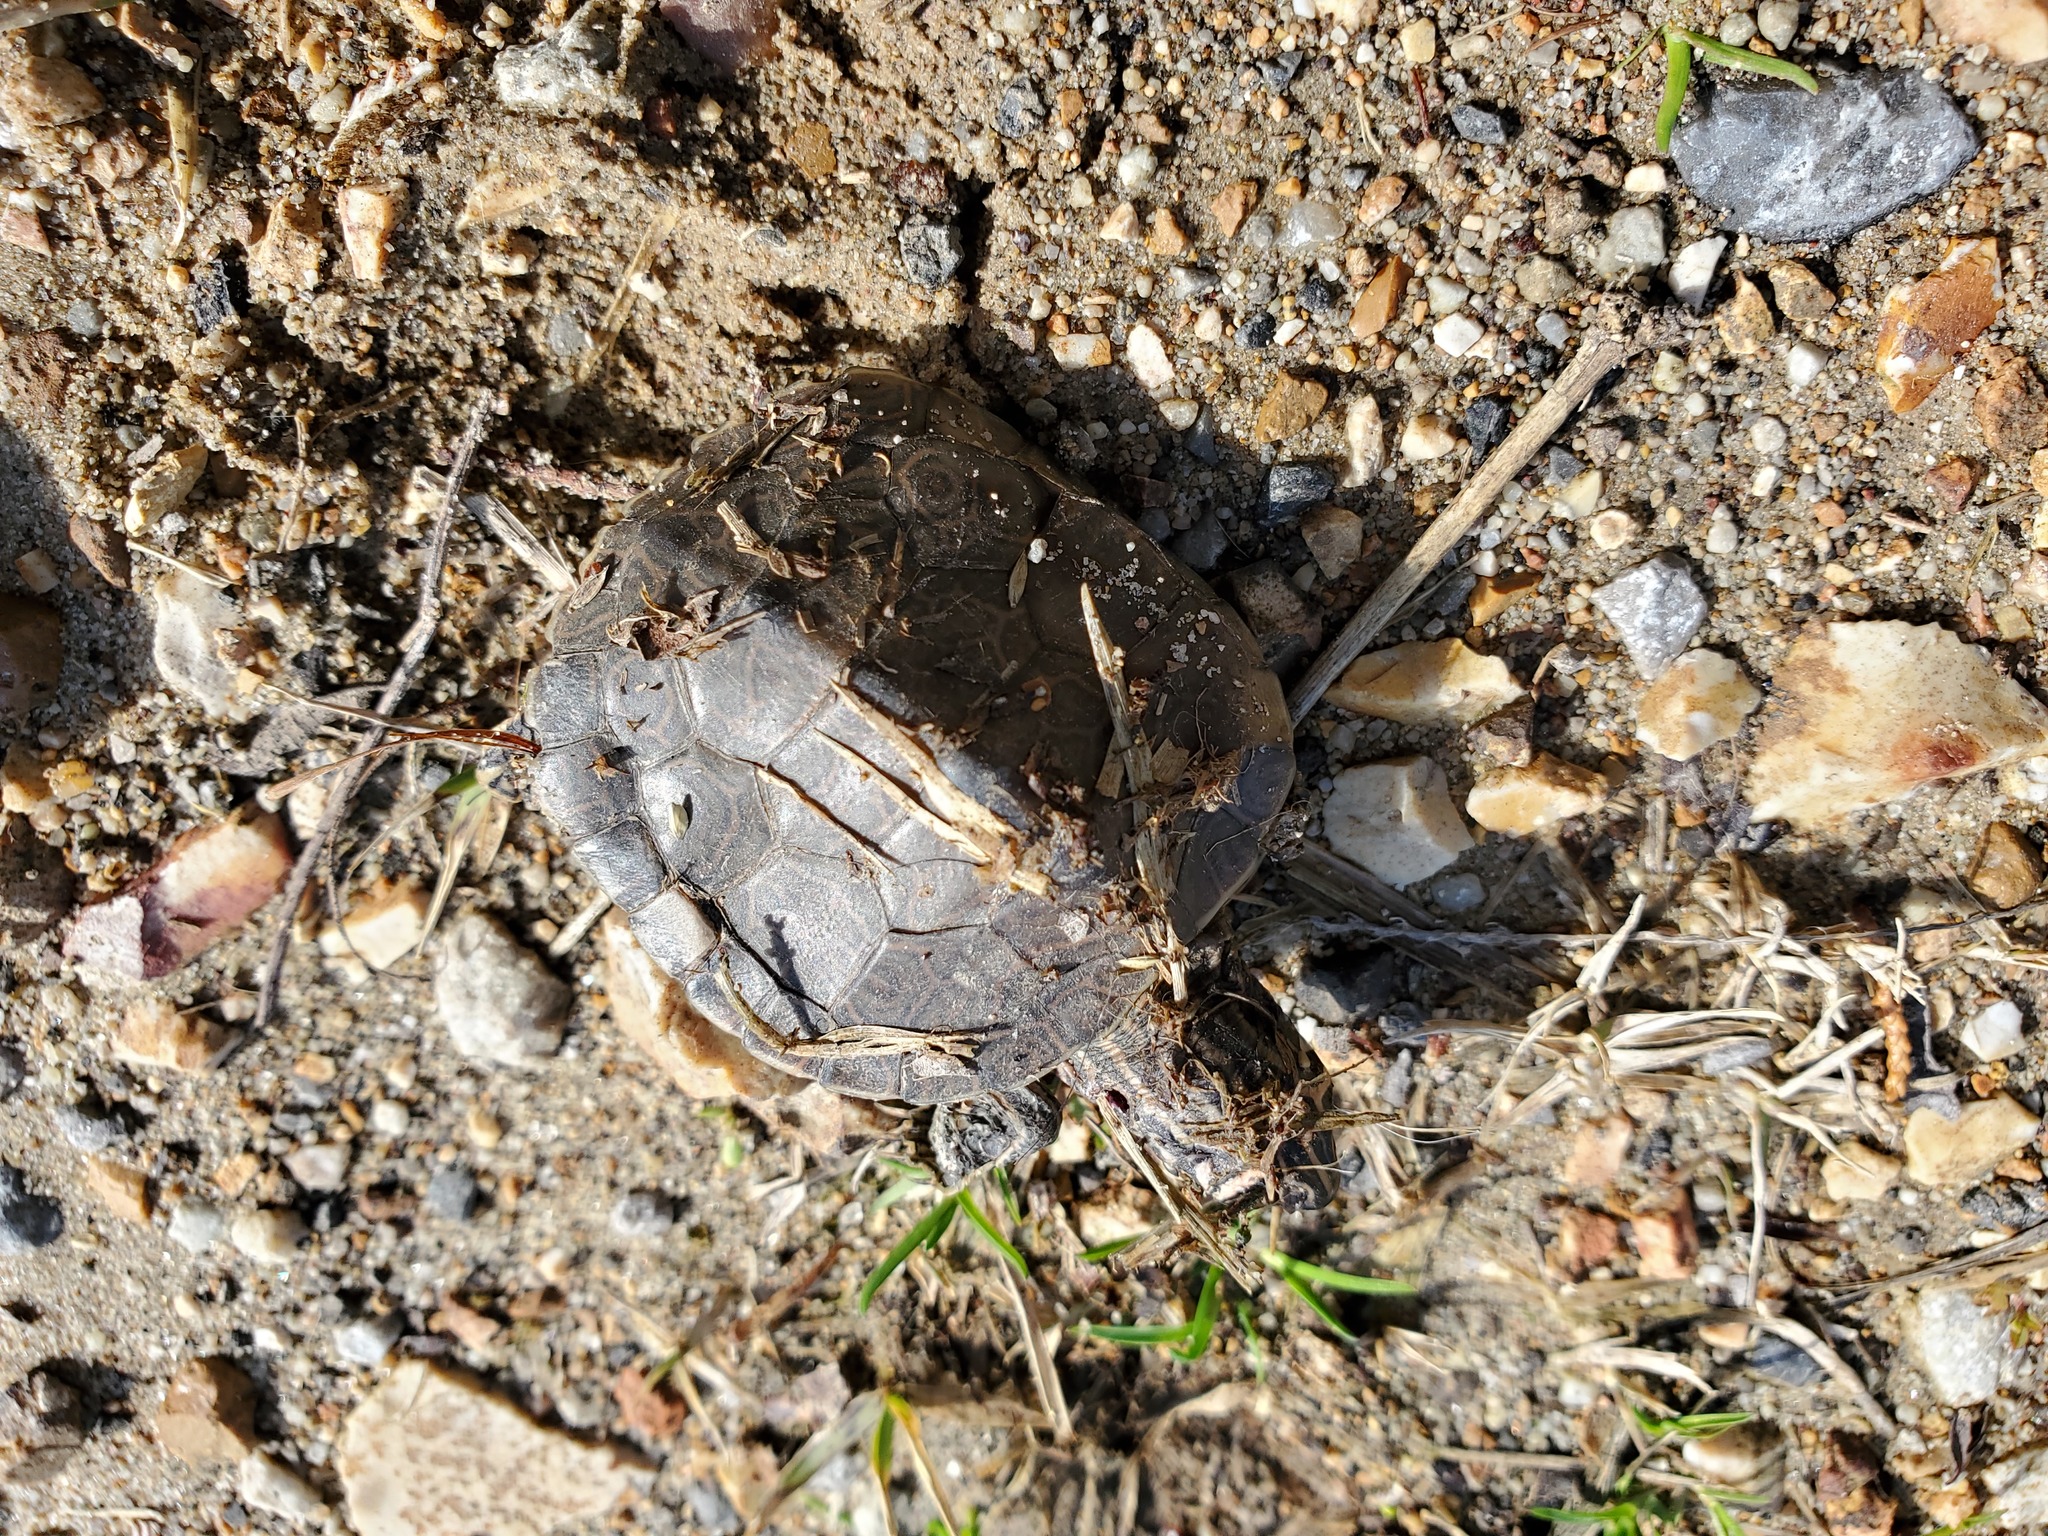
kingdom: Animalia
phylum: Chordata
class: Testudines
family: Emydidae
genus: Graptemys
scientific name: Graptemys ouachitensis
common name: Ouachita map turtle
